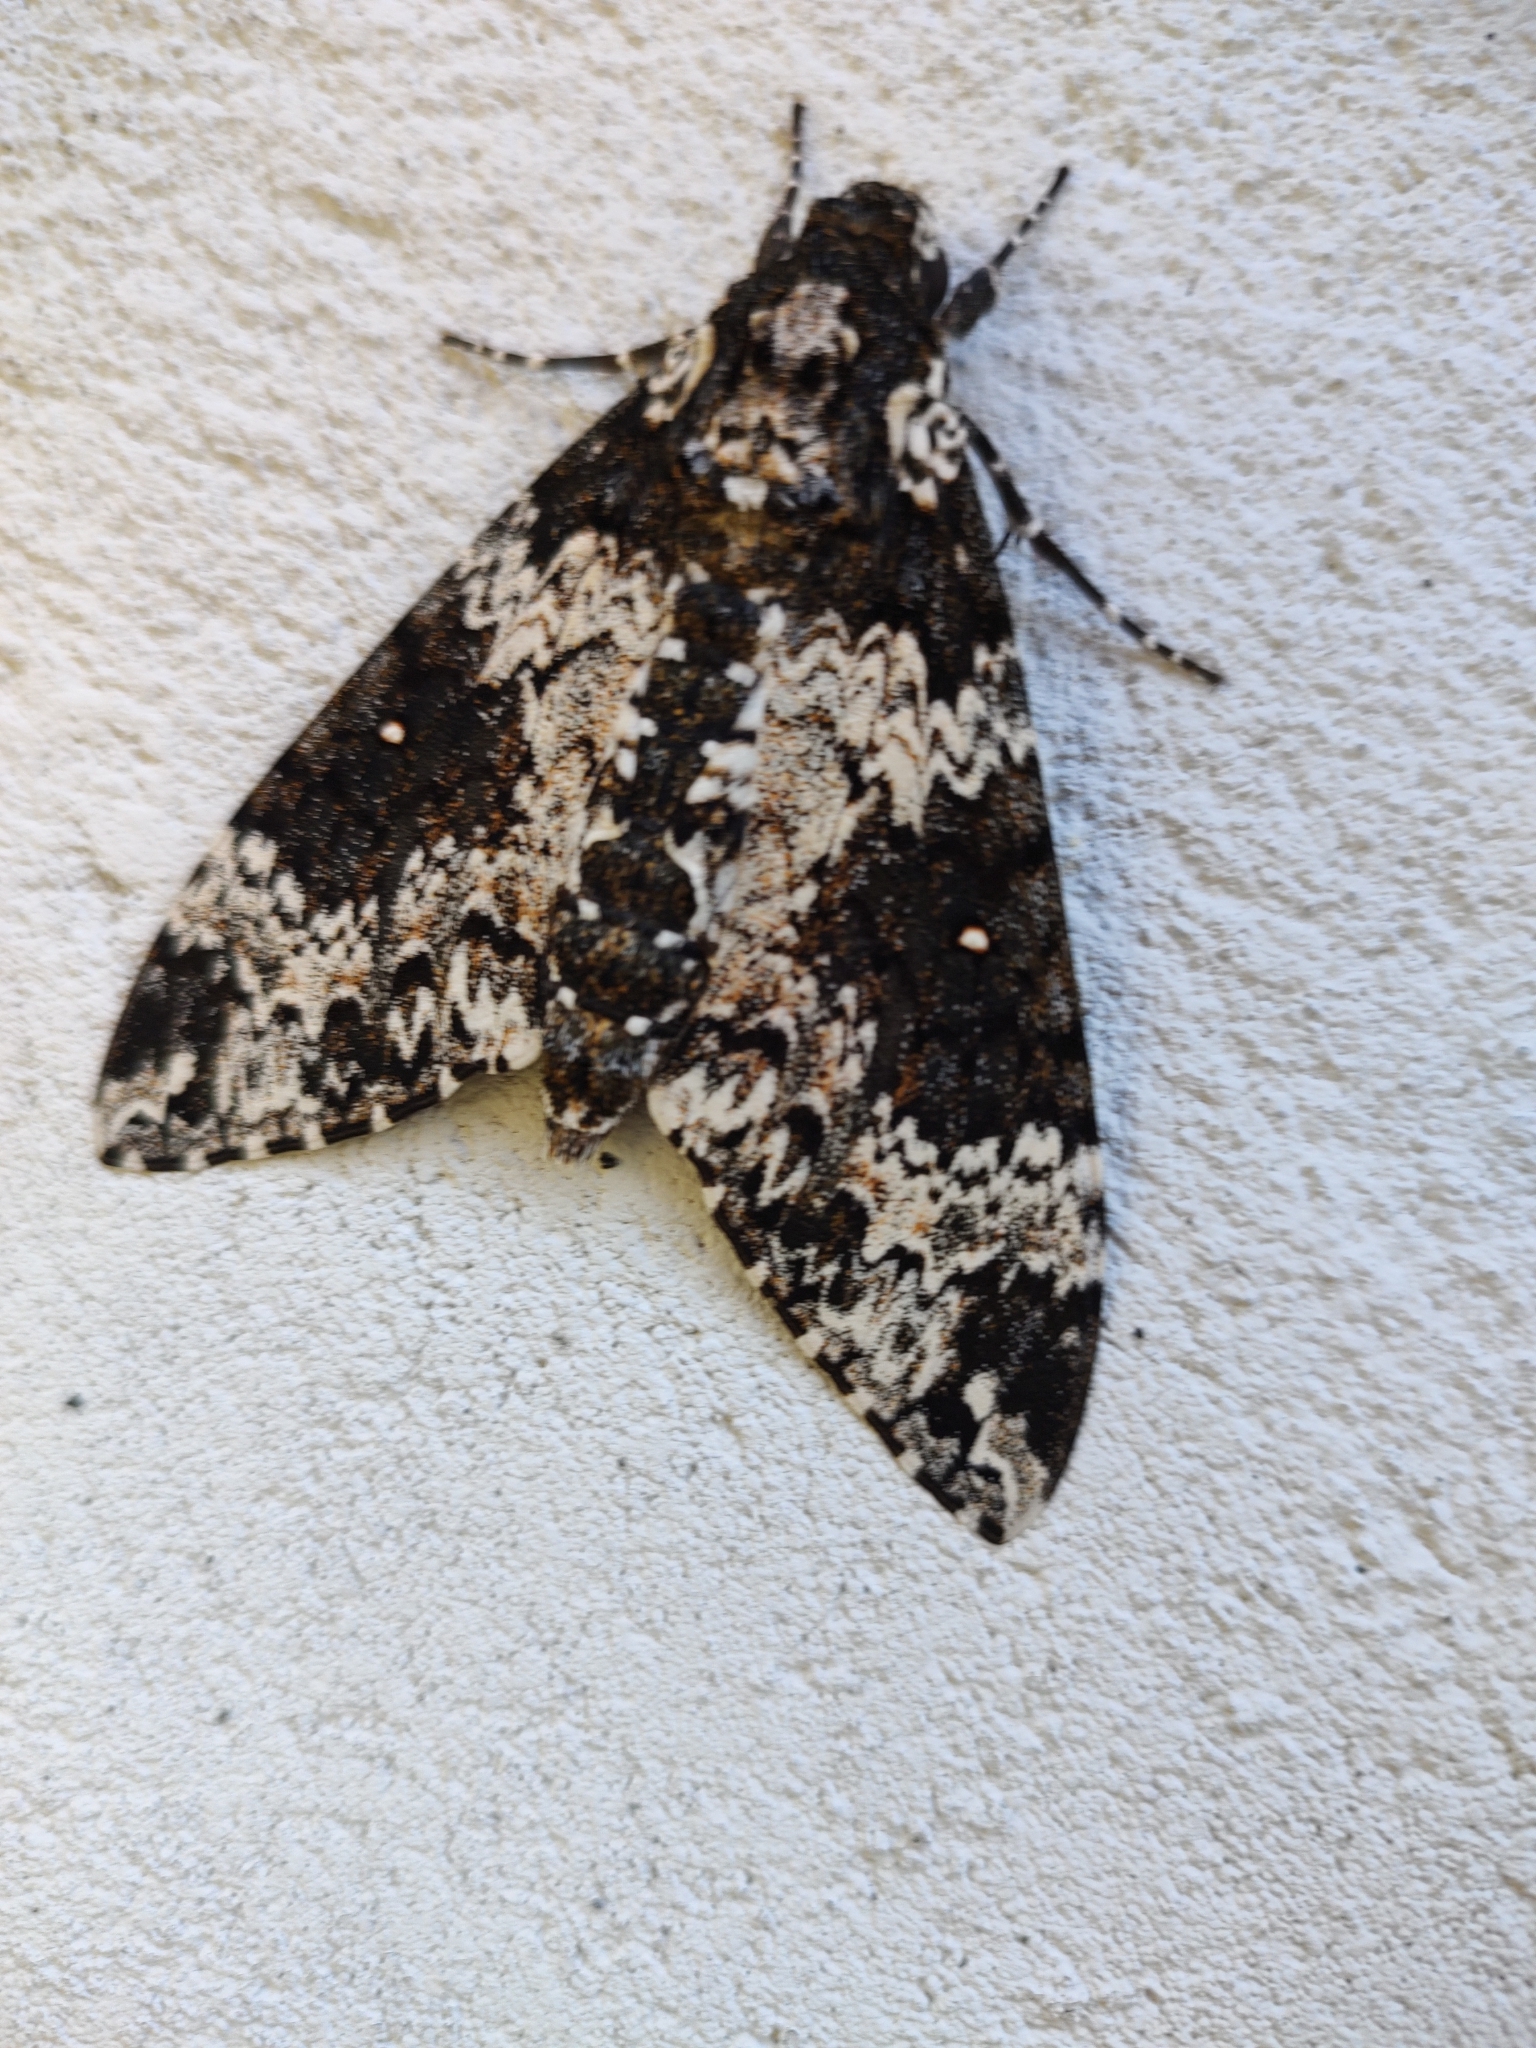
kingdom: Animalia
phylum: Arthropoda
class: Insecta
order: Lepidoptera
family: Sphingidae
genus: Manduca
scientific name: Manduca rustica
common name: Rustic sphinx
